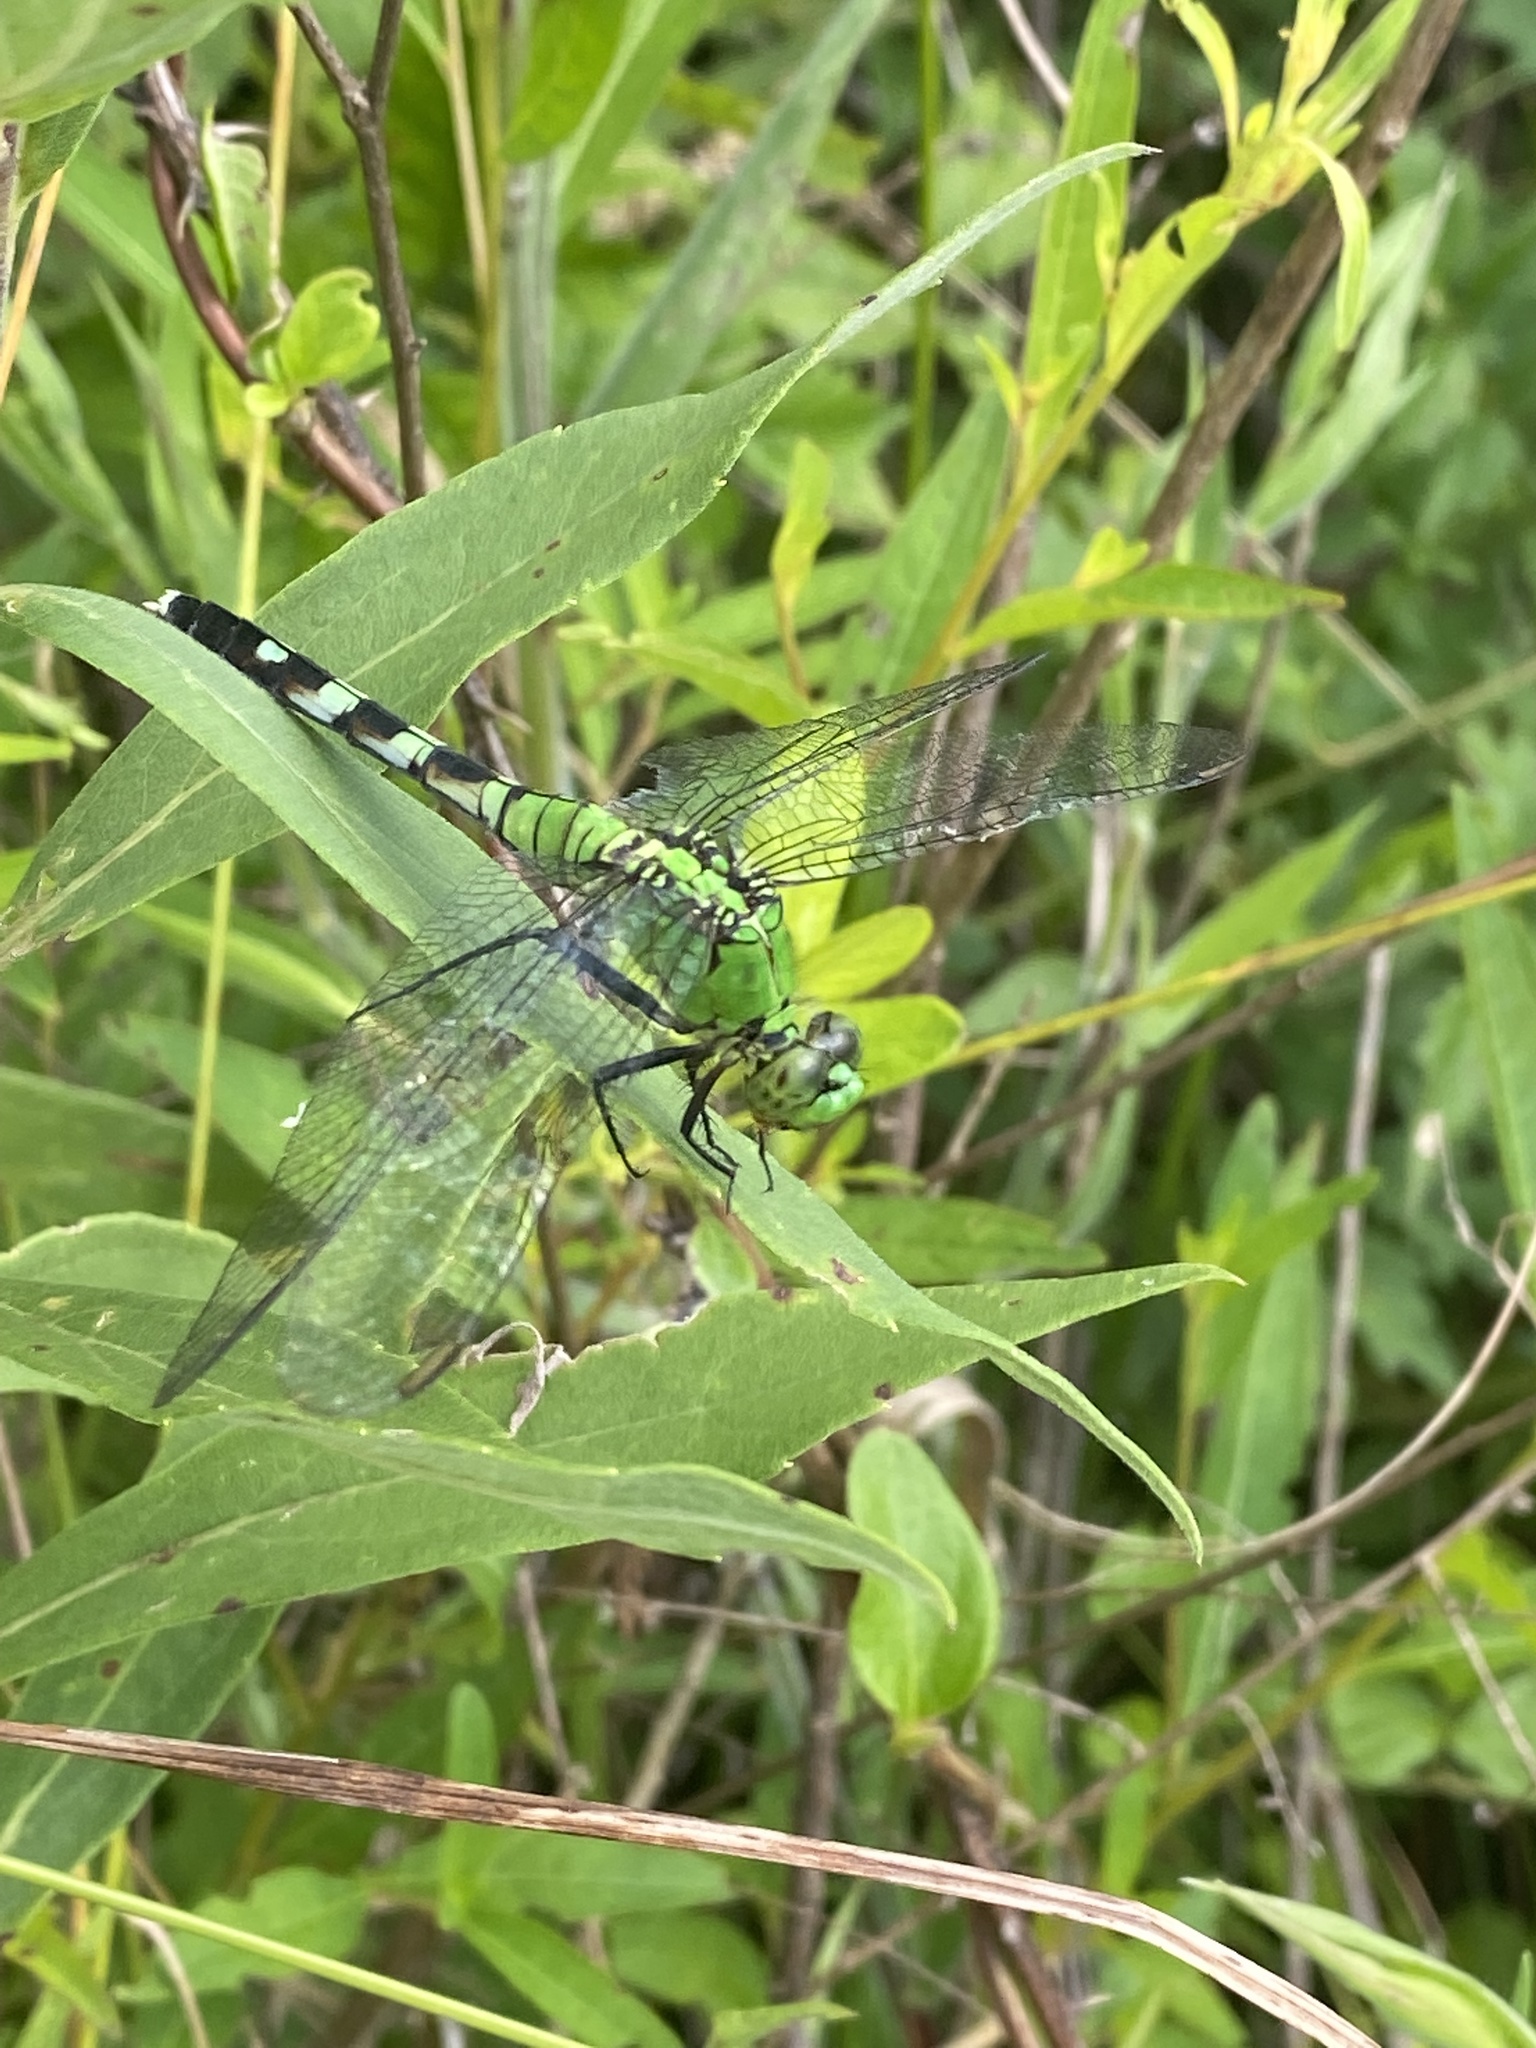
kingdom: Animalia
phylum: Arthropoda
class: Insecta
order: Odonata
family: Libellulidae
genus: Erythemis
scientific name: Erythemis simplicicollis
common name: Eastern pondhawk
